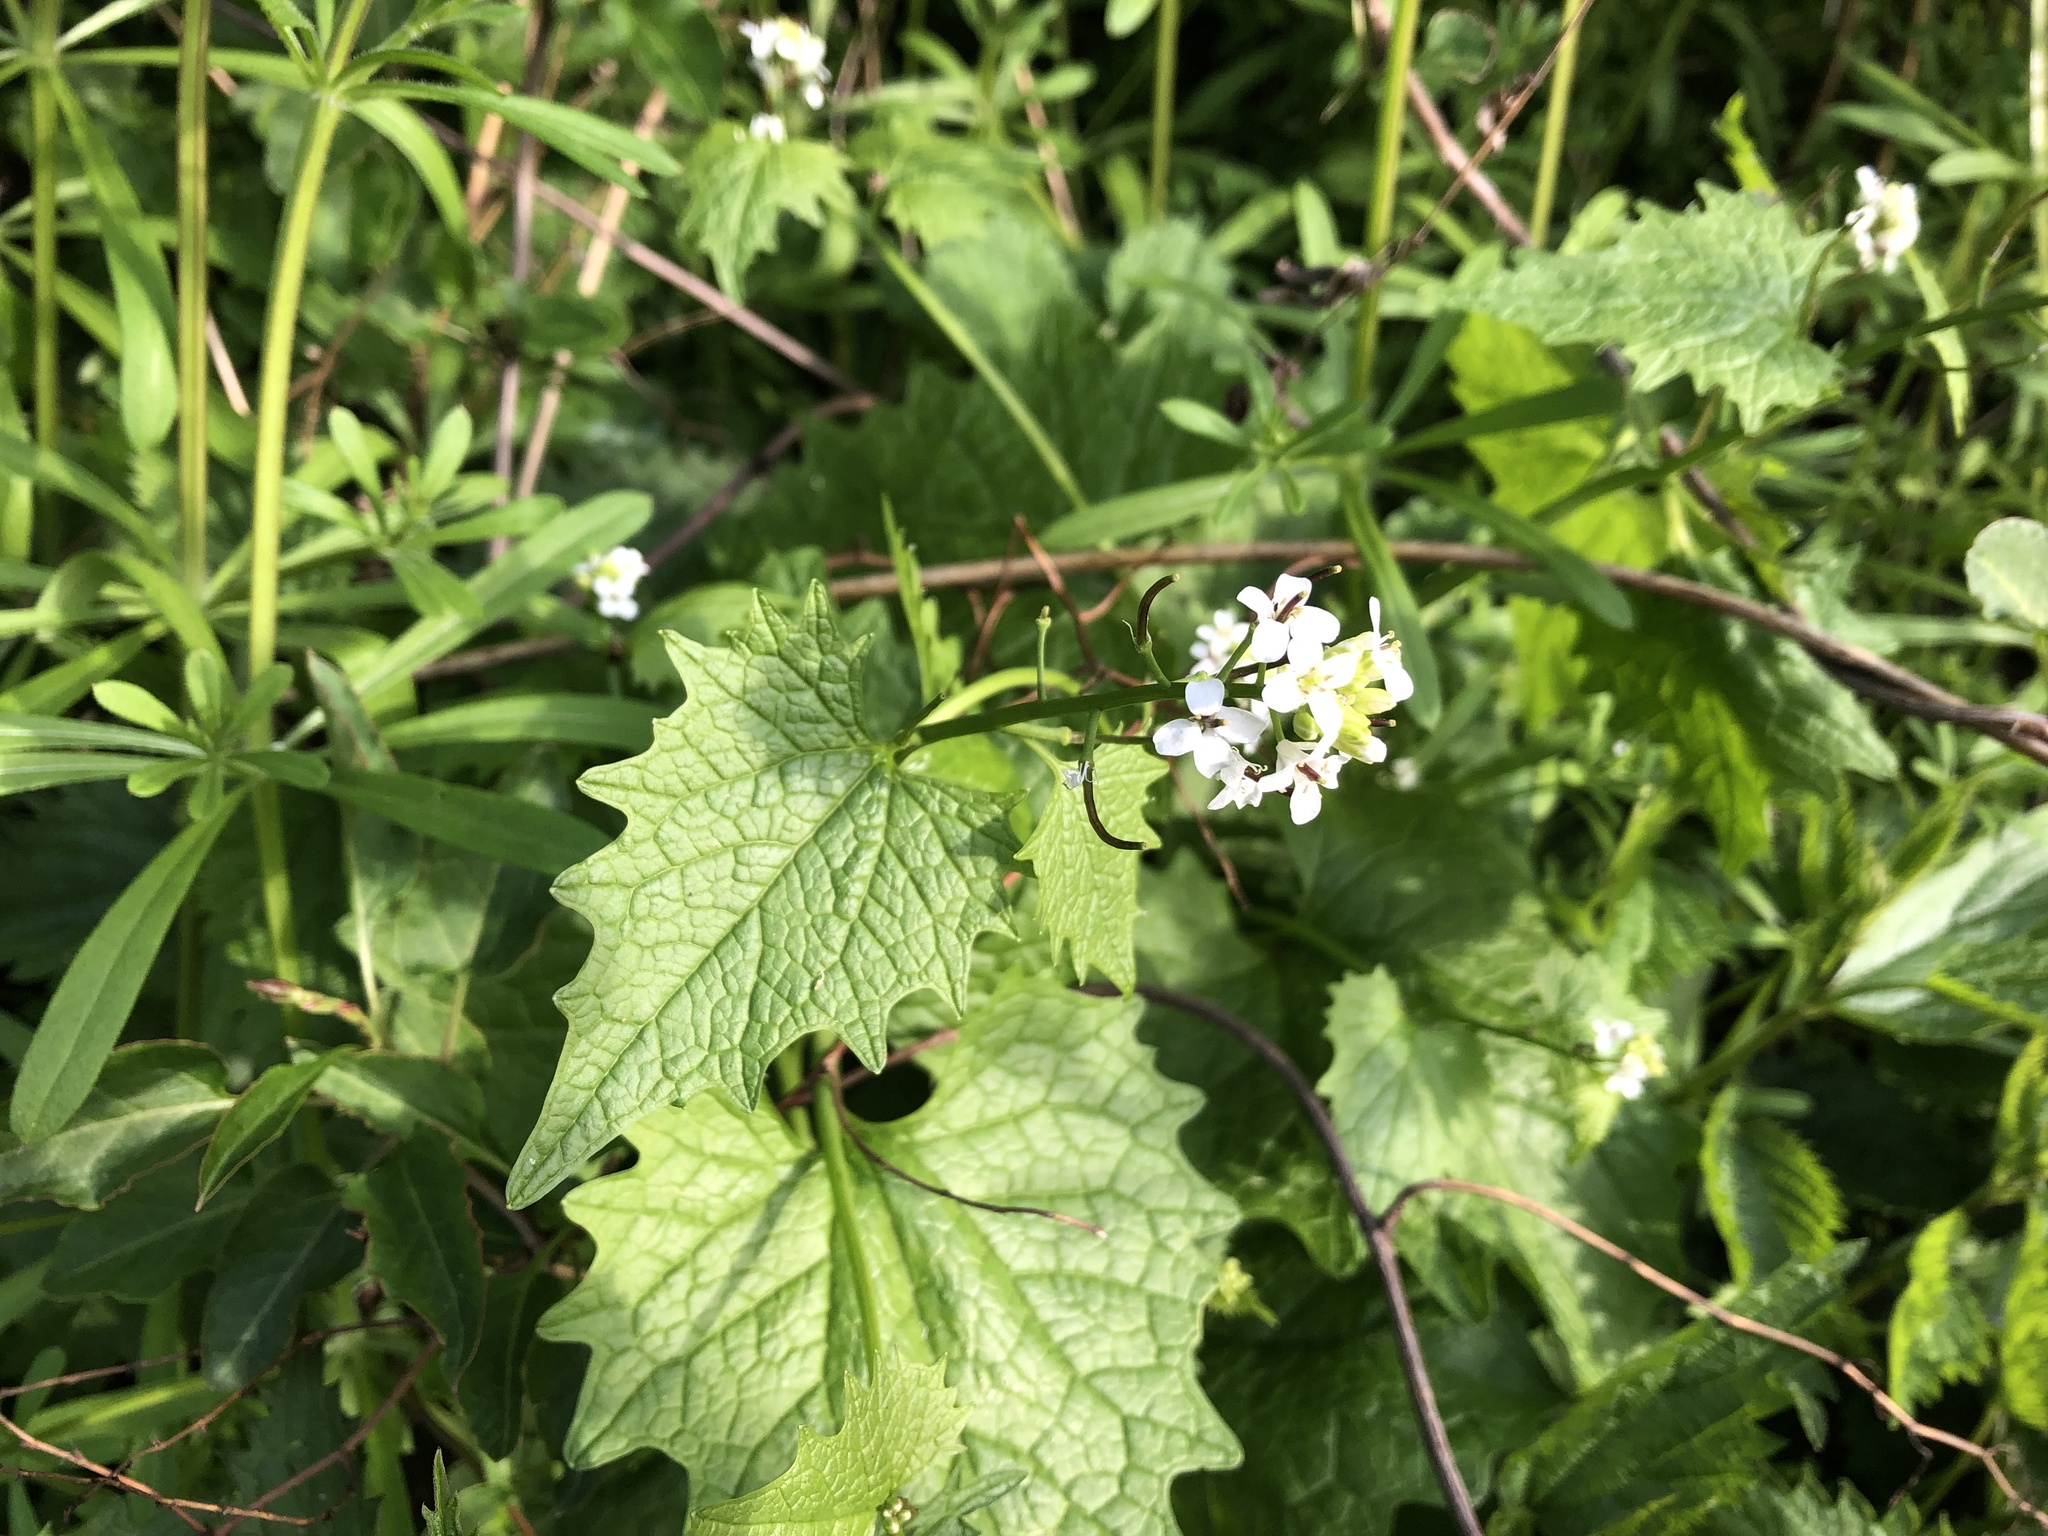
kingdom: Plantae
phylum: Tracheophyta
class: Magnoliopsida
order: Brassicales
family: Brassicaceae
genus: Alliaria
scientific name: Alliaria petiolata
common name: Garlic mustard
